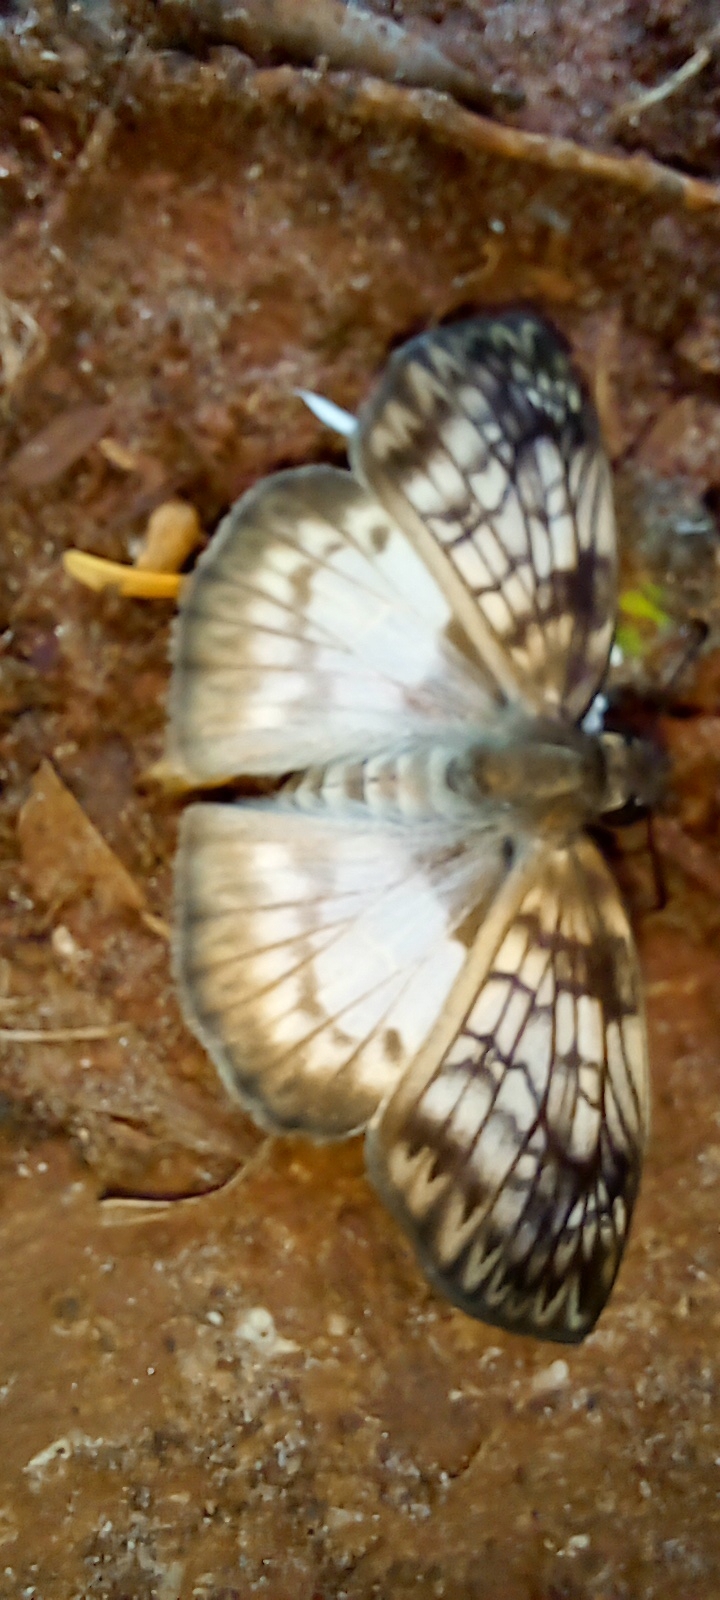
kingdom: Animalia
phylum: Arthropoda
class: Insecta
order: Lepidoptera
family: Hesperiidae
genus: Mylon
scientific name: Mylon maimon
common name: Common mylon
